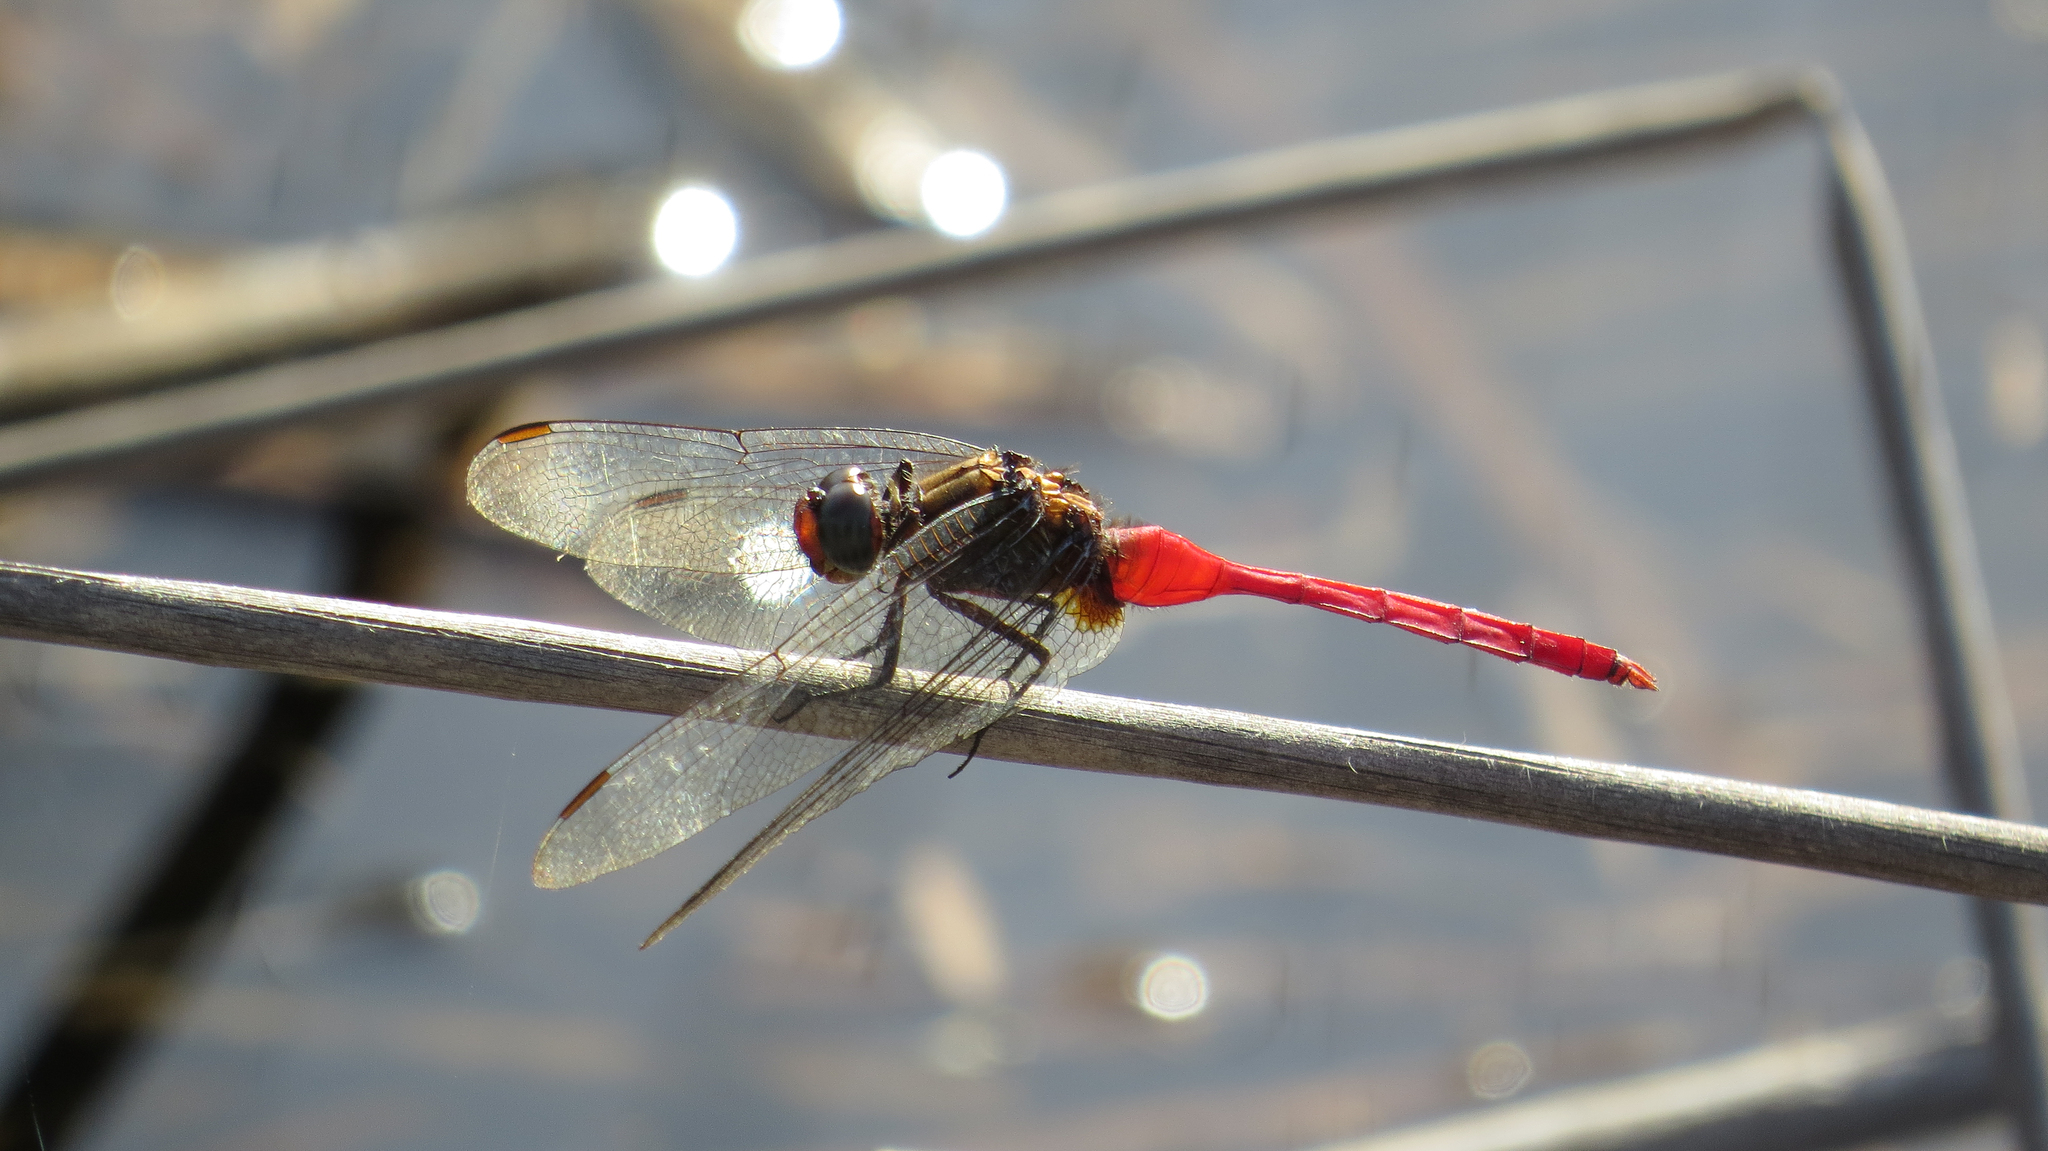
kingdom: Animalia
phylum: Arthropoda
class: Insecta
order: Odonata
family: Libellulidae
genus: Orthetrum
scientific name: Orthetrum villosovittatum
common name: Firery skimmer
